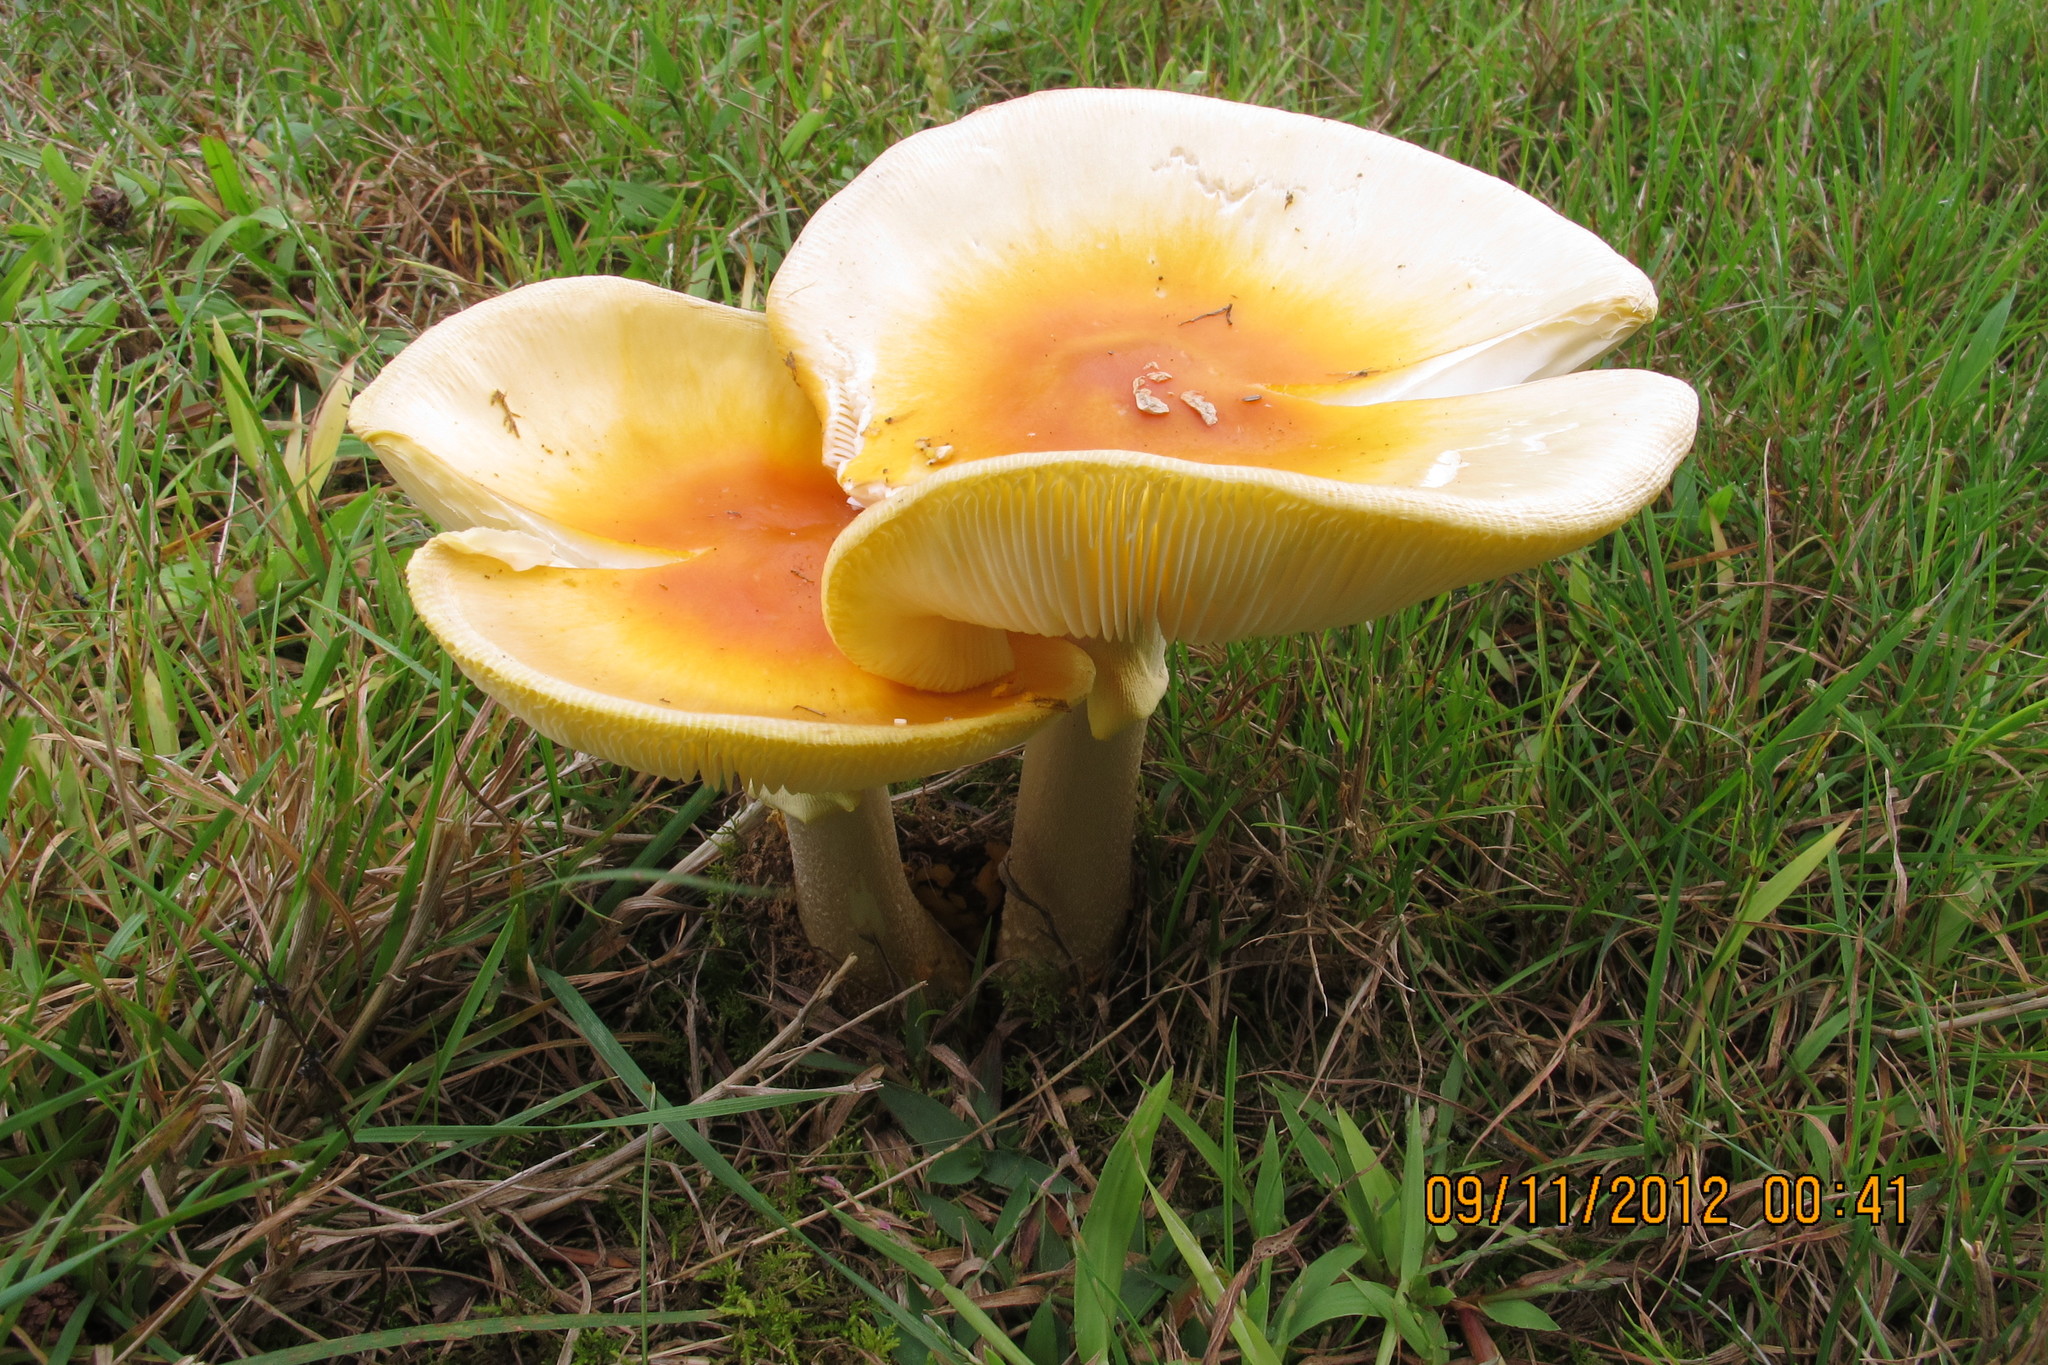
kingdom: Fungi
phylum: Basidiomycota
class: Agaricomycetes
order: Agaricales
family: Amanitaceae
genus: Amanita
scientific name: Amanita flavoconia
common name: Yellow patches
